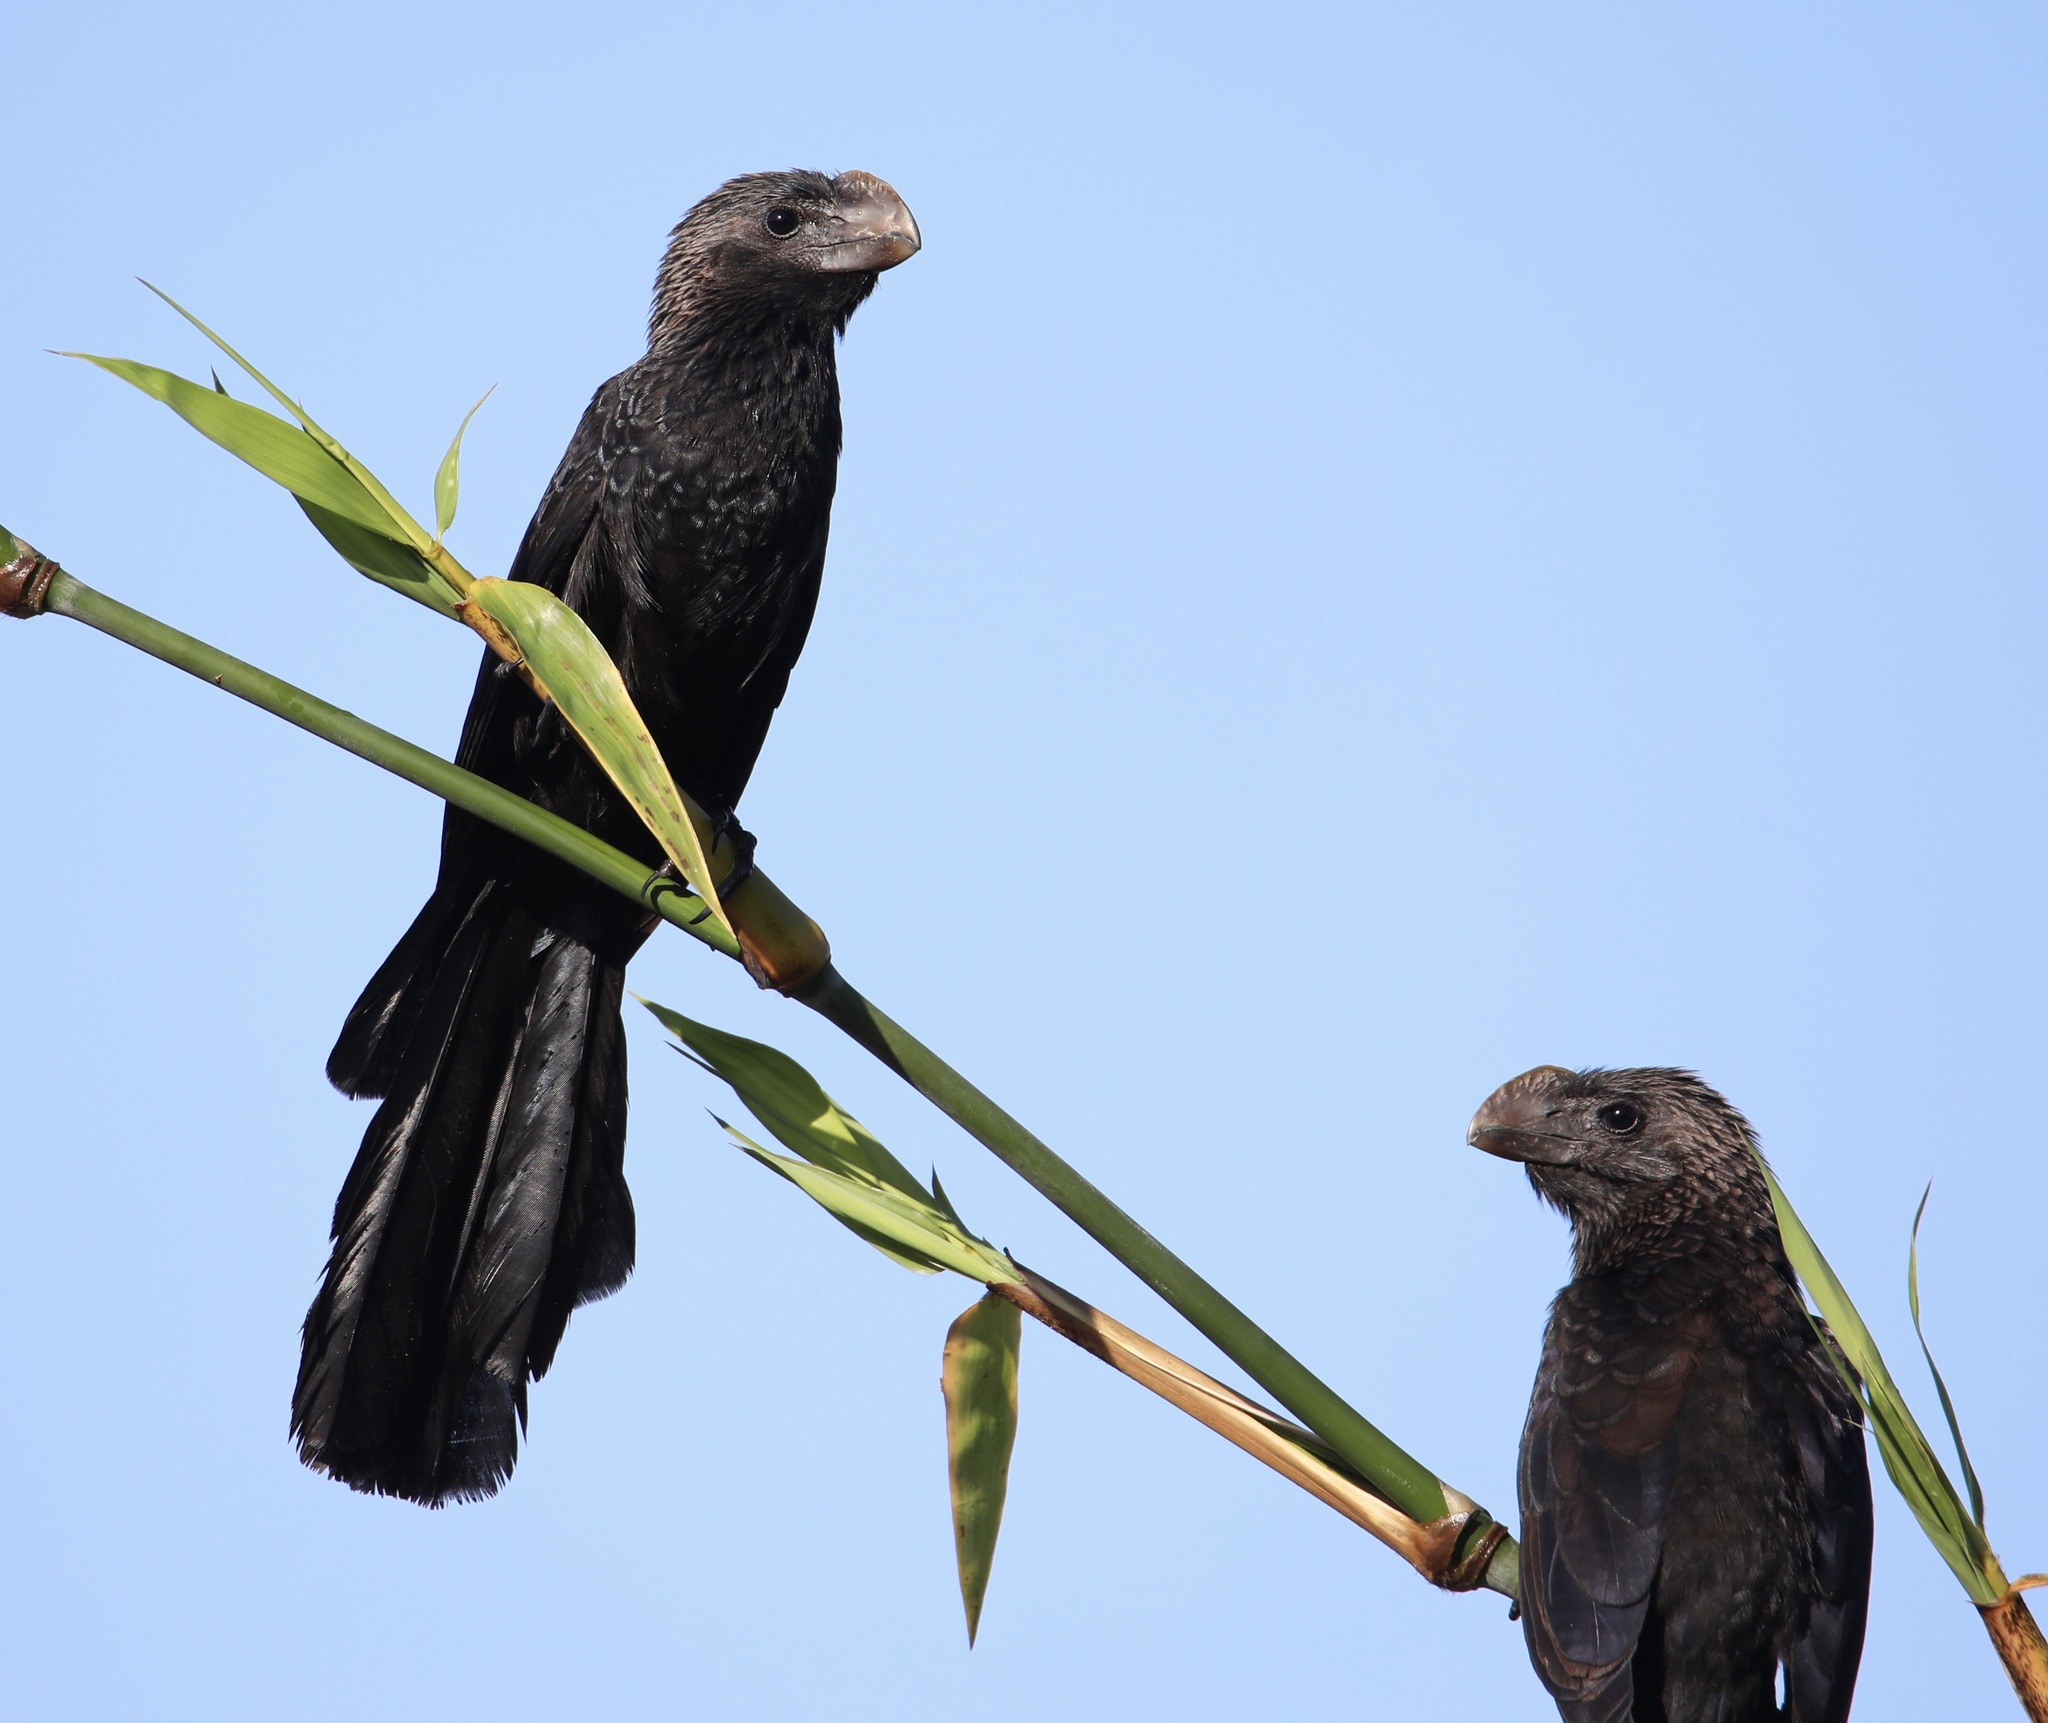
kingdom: Animalia
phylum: Chordata
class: Aves
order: Cuculiformes
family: Cuculidae
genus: Crotophaga
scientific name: Crotophaga ani
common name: Smooth-billed ani
